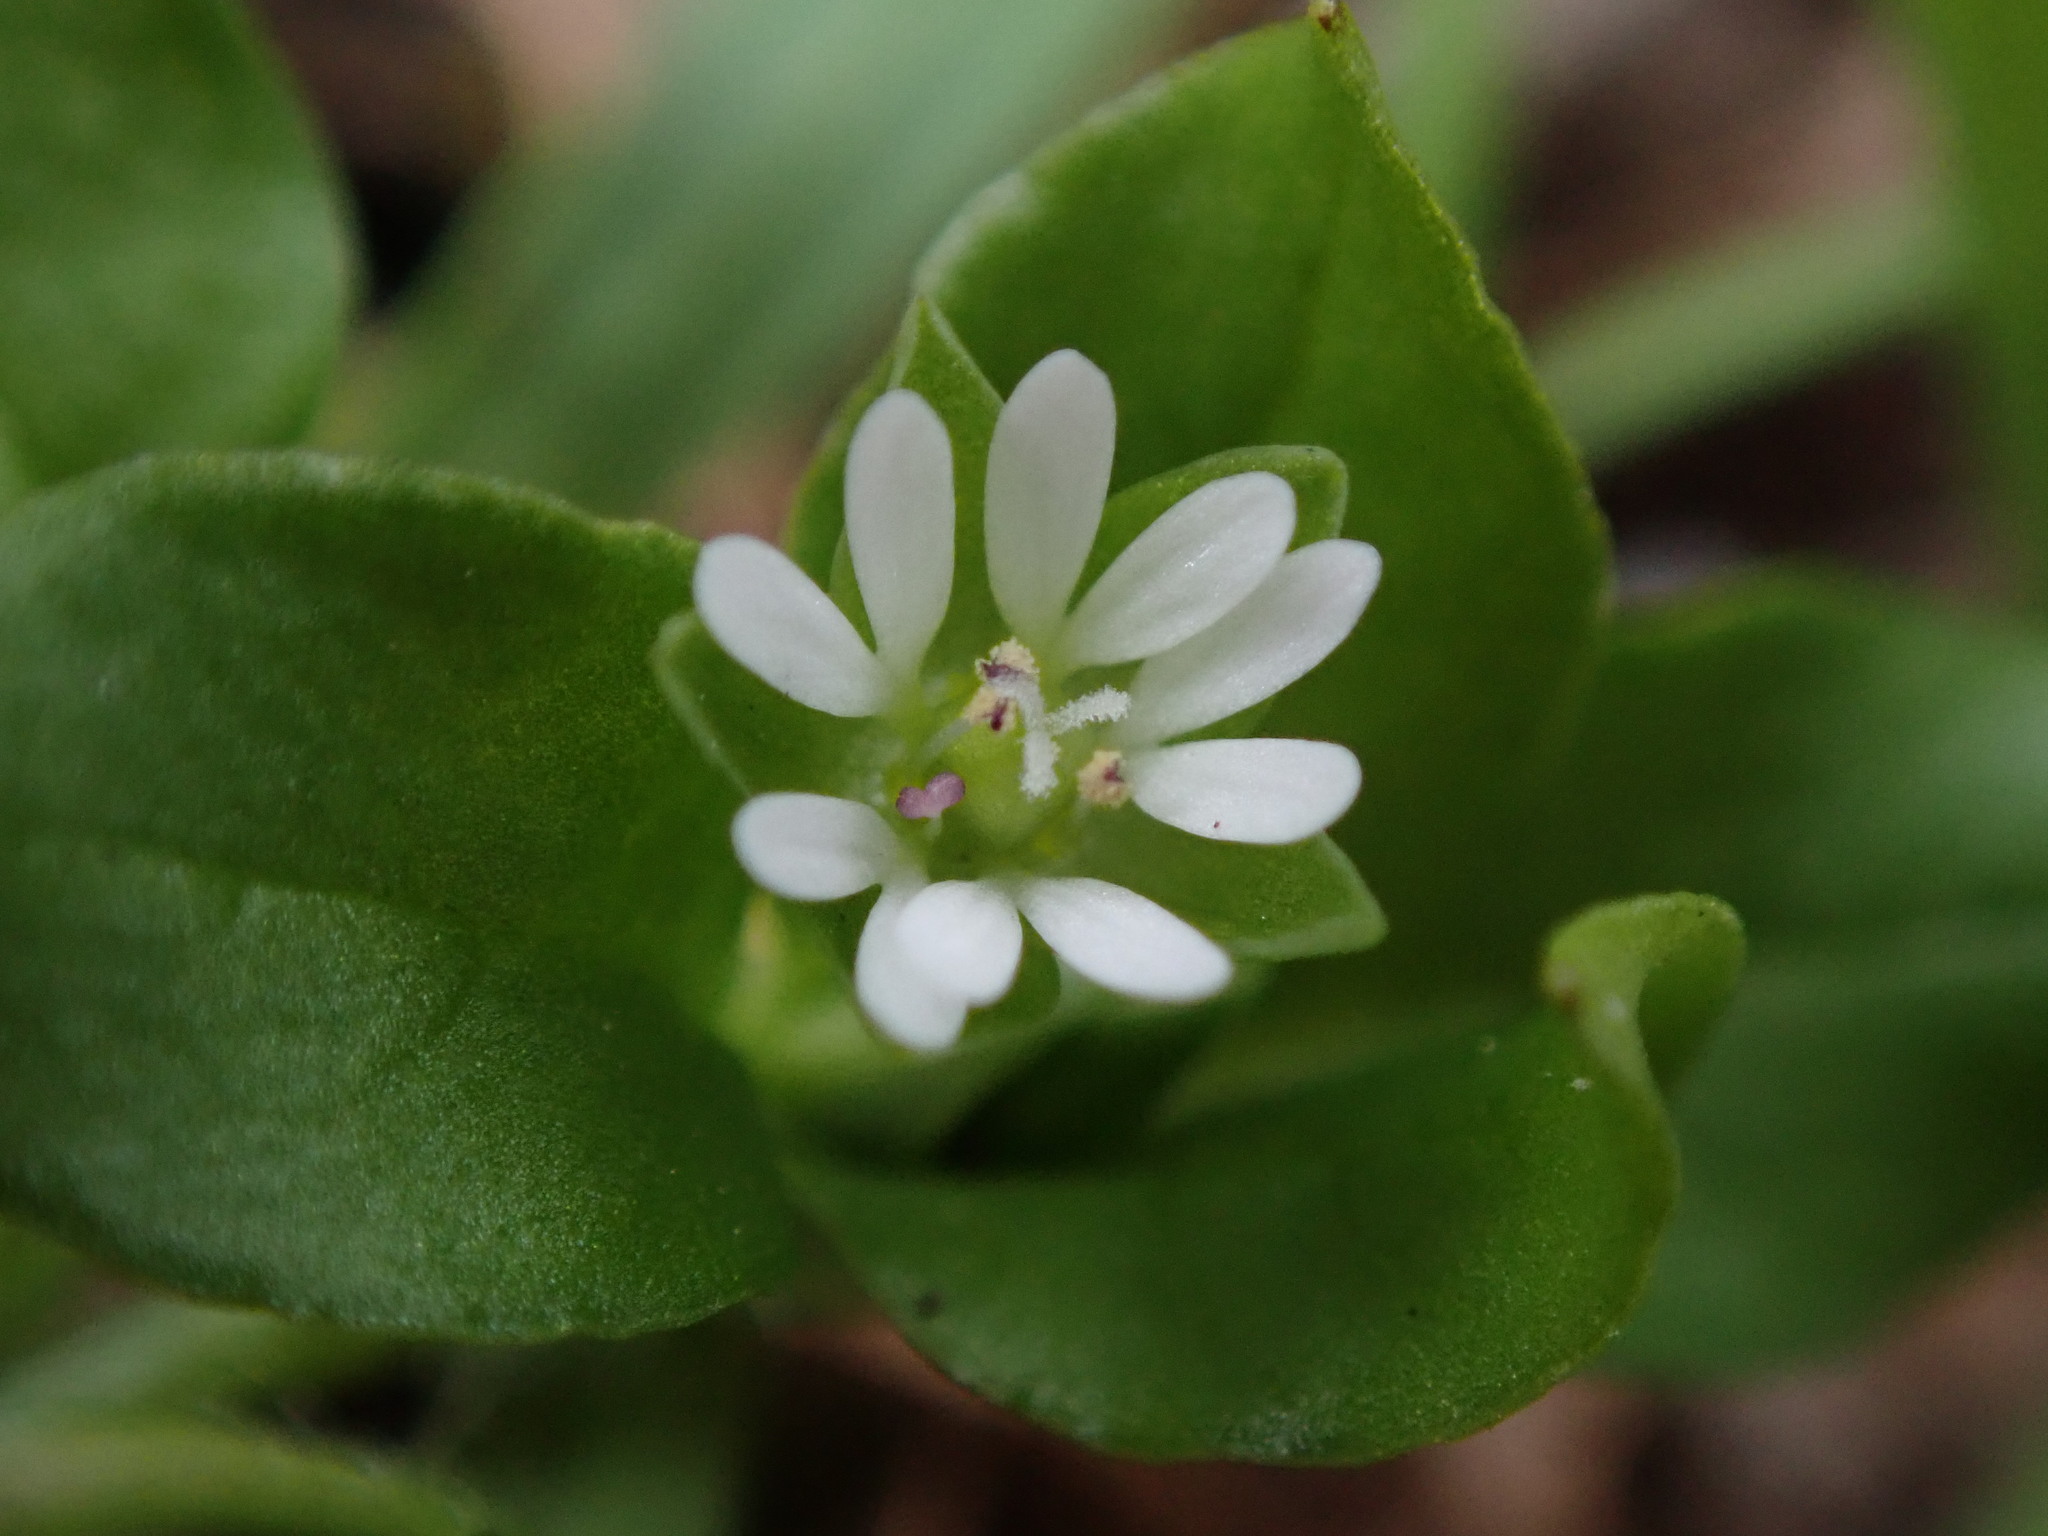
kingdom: Plantae
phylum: Tracheophyta
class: Magnoliopsida
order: Caryophyllales
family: Caryophyllaceae
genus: Stellaria
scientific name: Stellaria media
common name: Common chickweed
